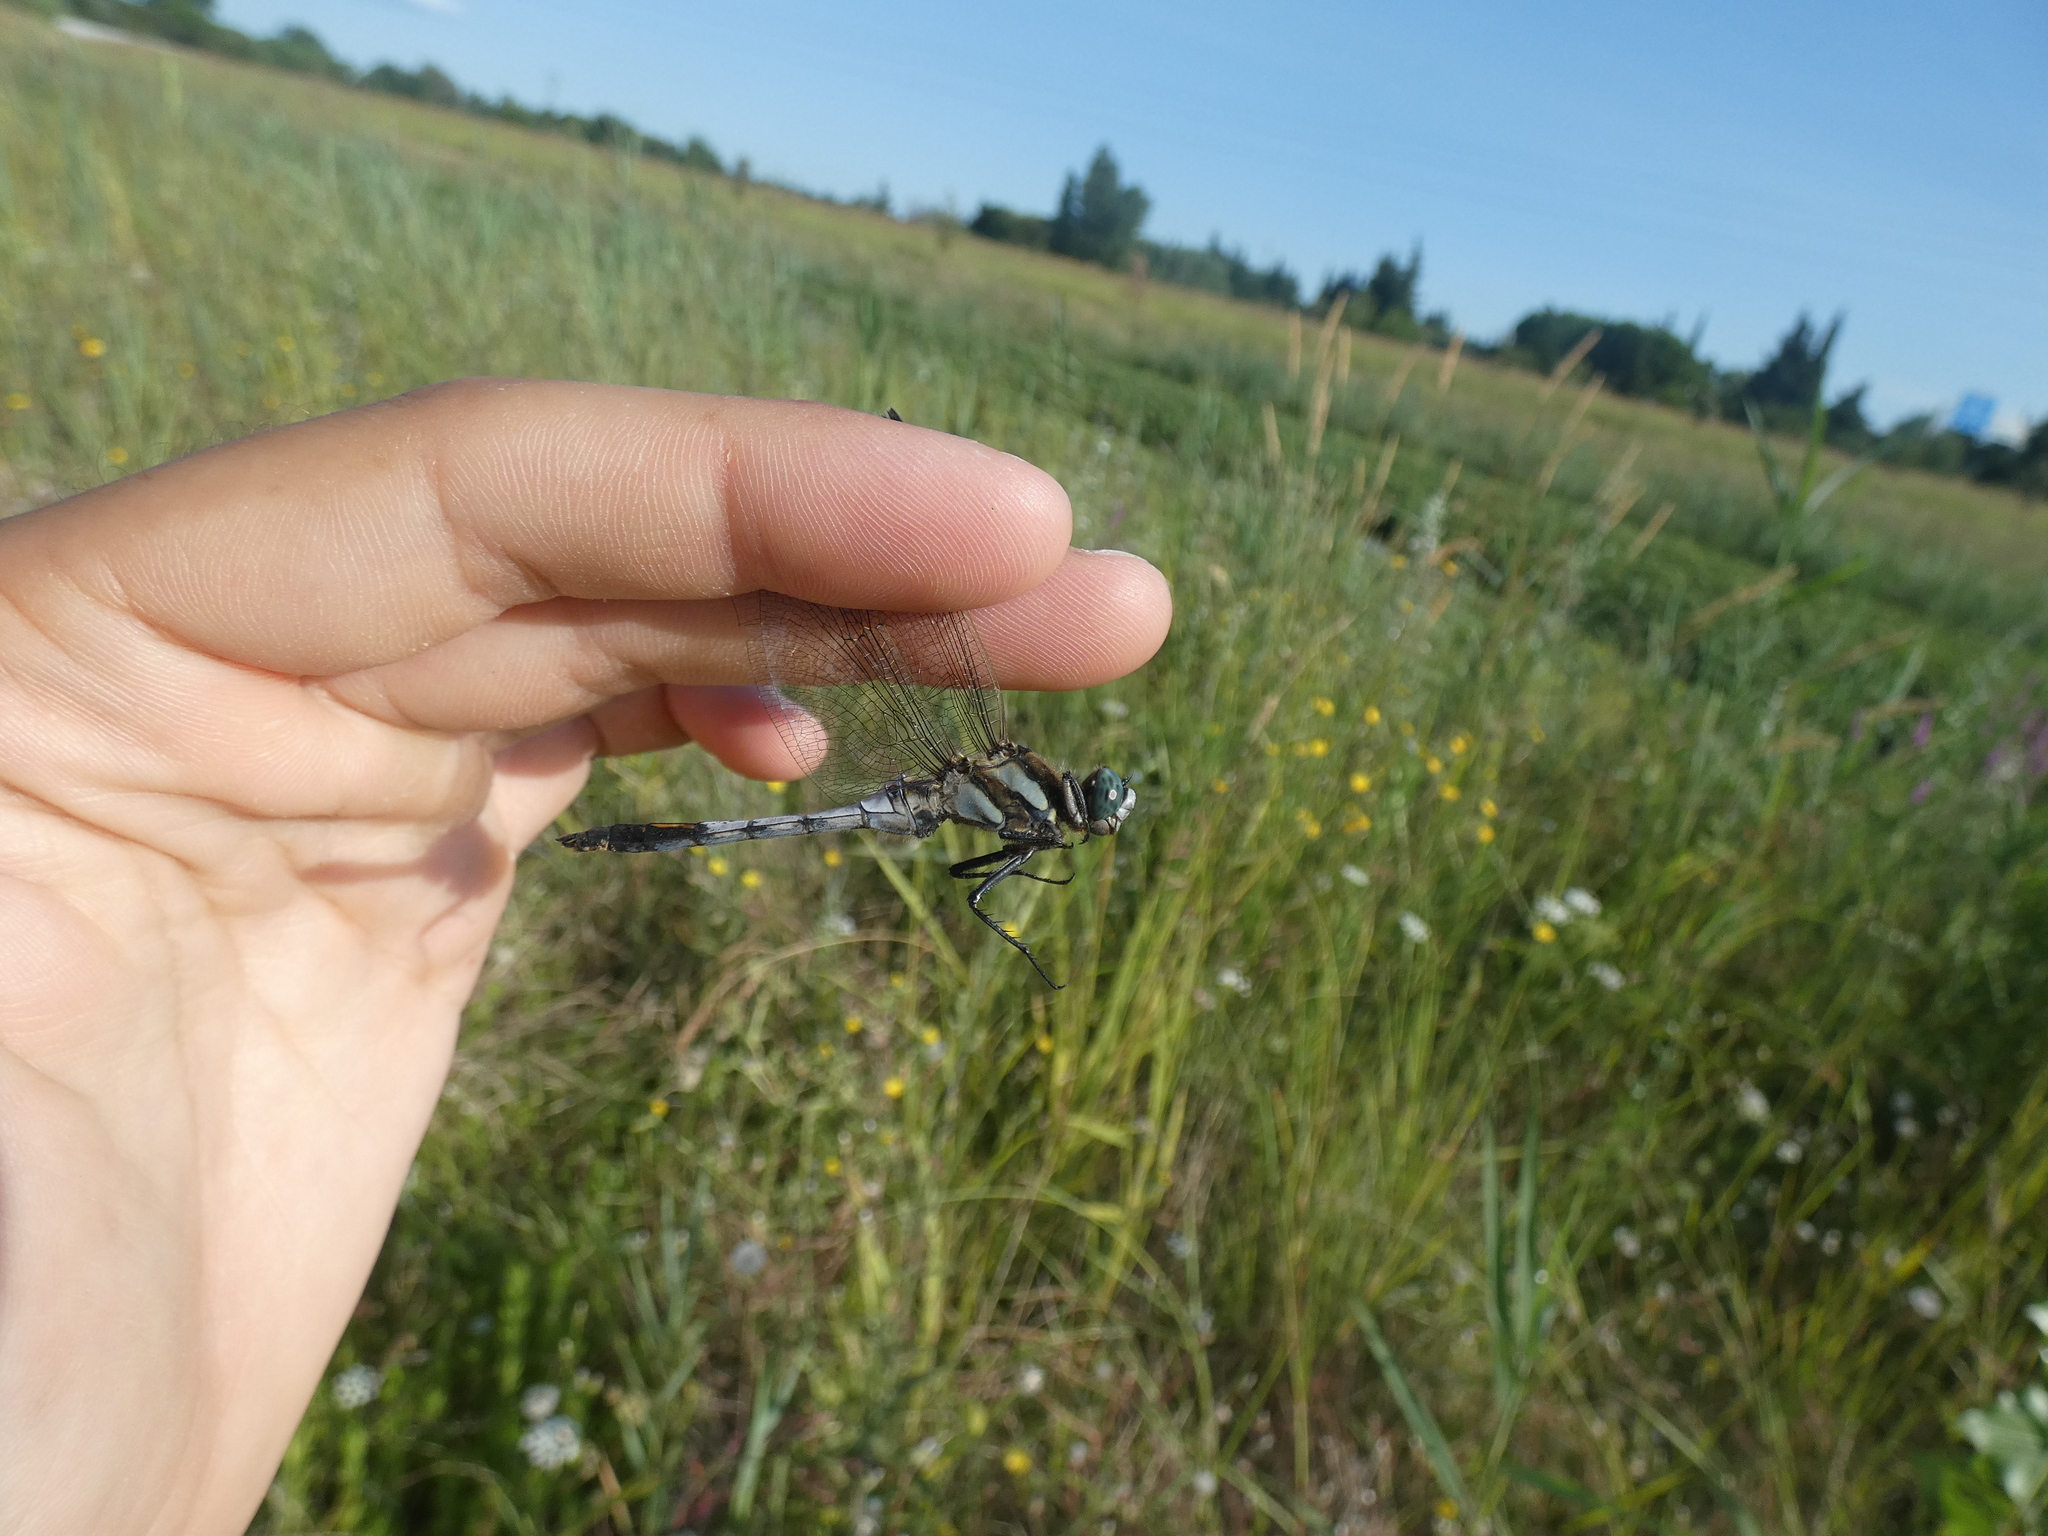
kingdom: Animalia
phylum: Arthropoda
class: Insecta
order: Odonata
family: Libellulidae
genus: Orthetrum
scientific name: Orthetrum albistylum
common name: White-tailed skimmer
